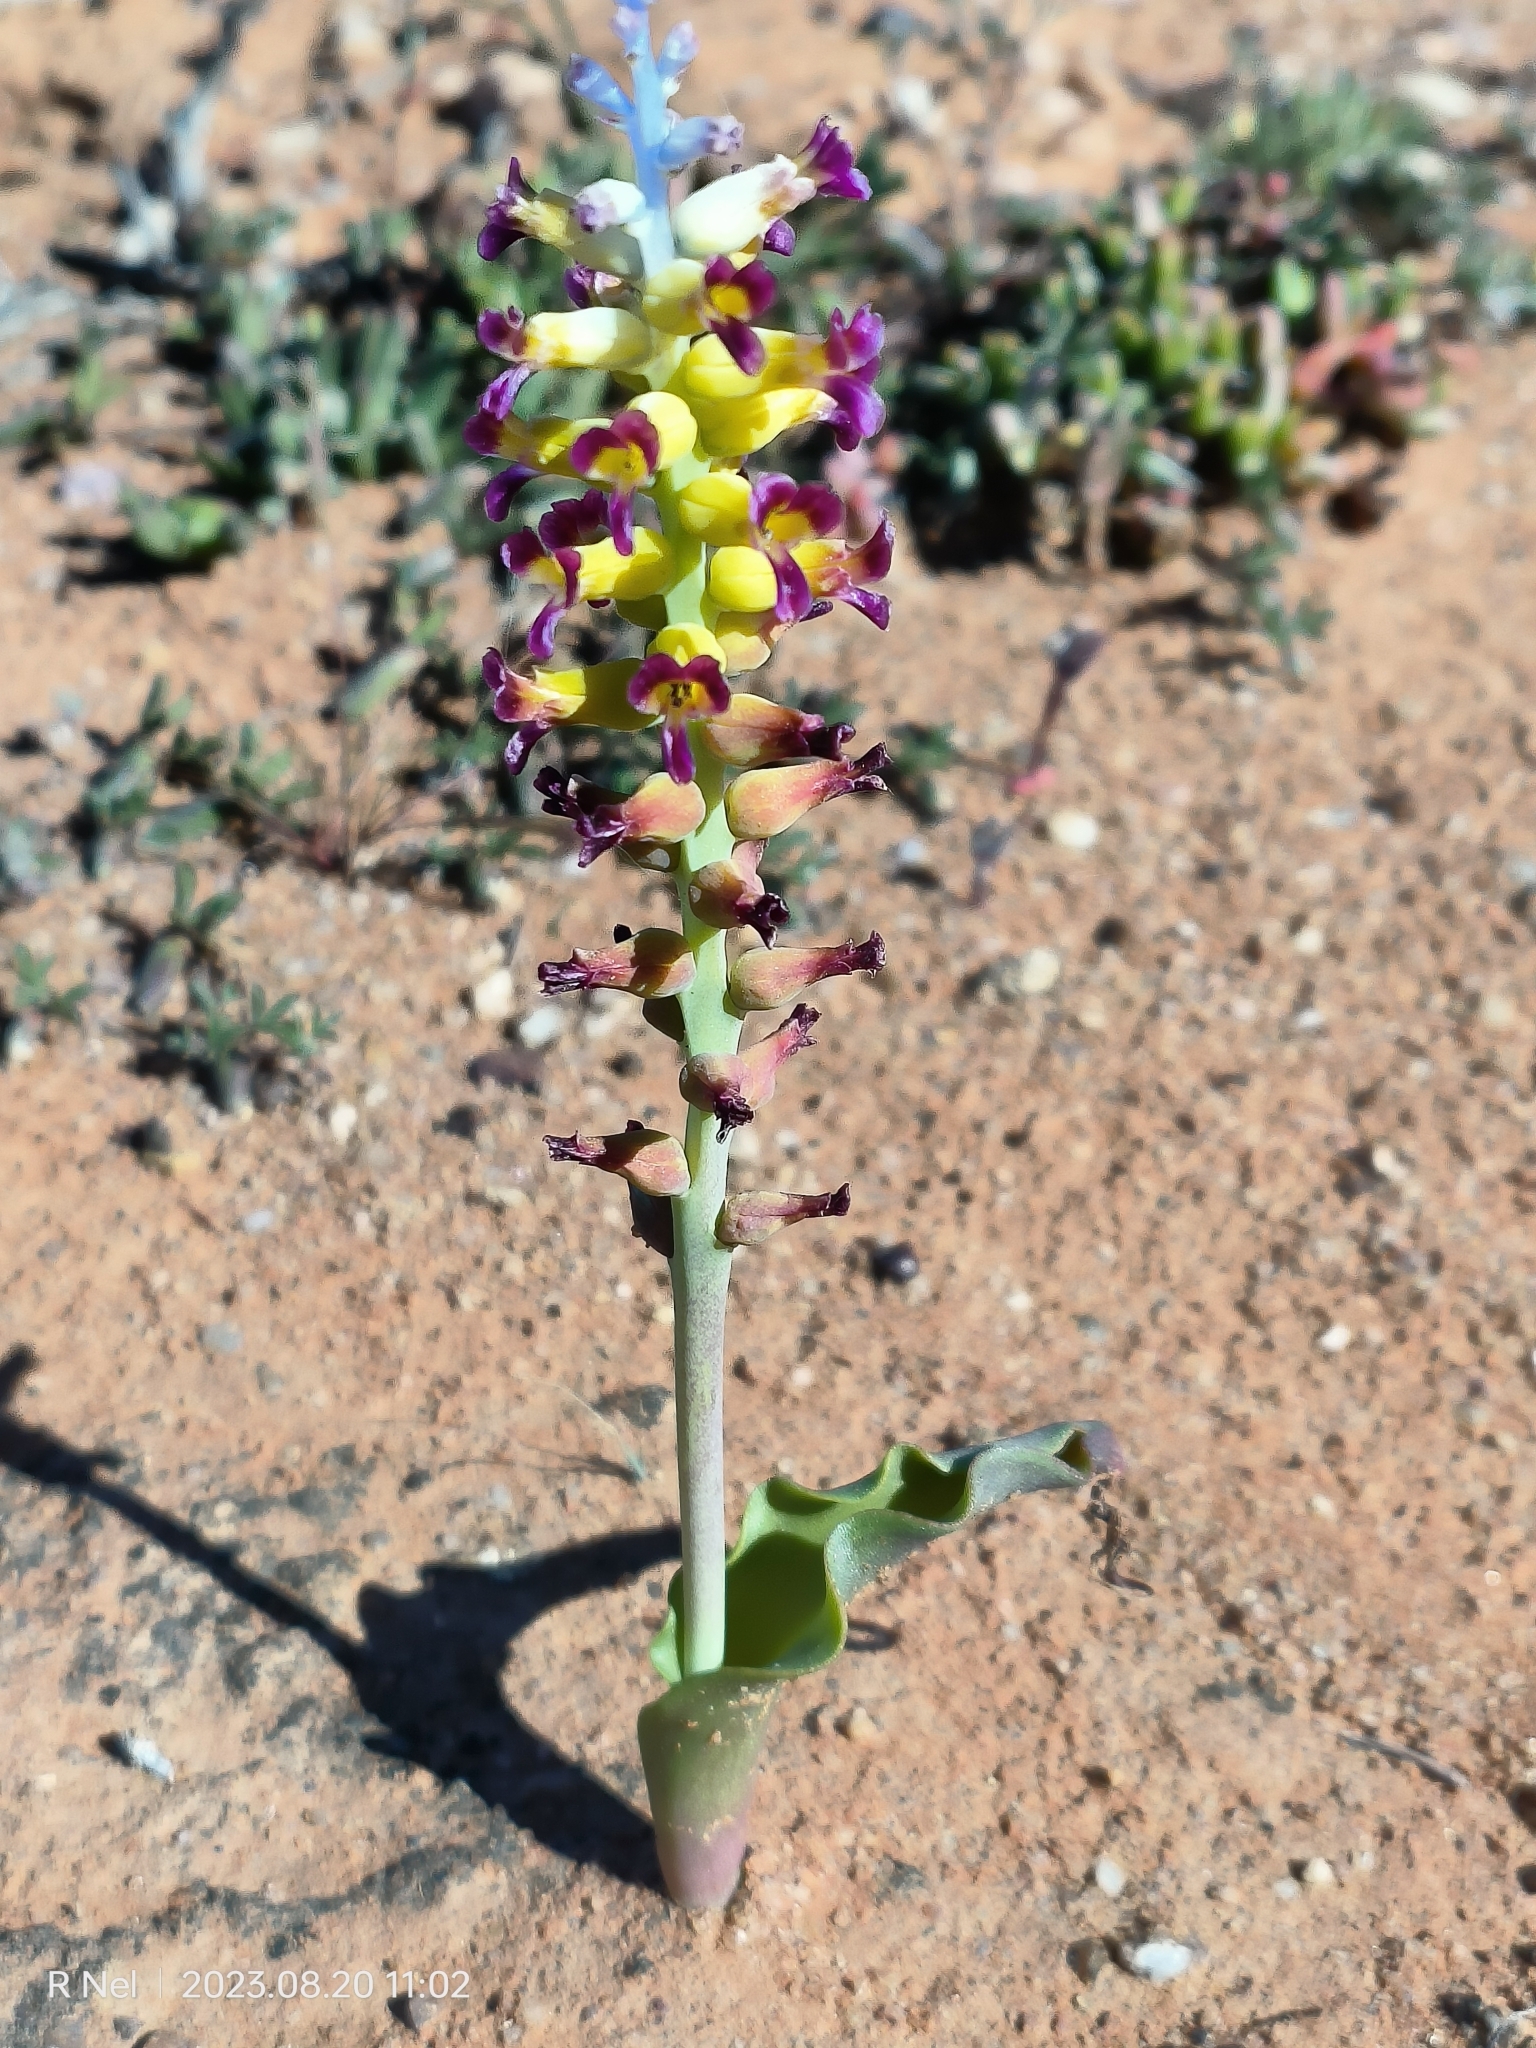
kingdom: Plantae
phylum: Tracheophyta
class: Liliopsida
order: Asparagales
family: Asparagaceae
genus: Lachenalia
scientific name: Lachenalia framesii
